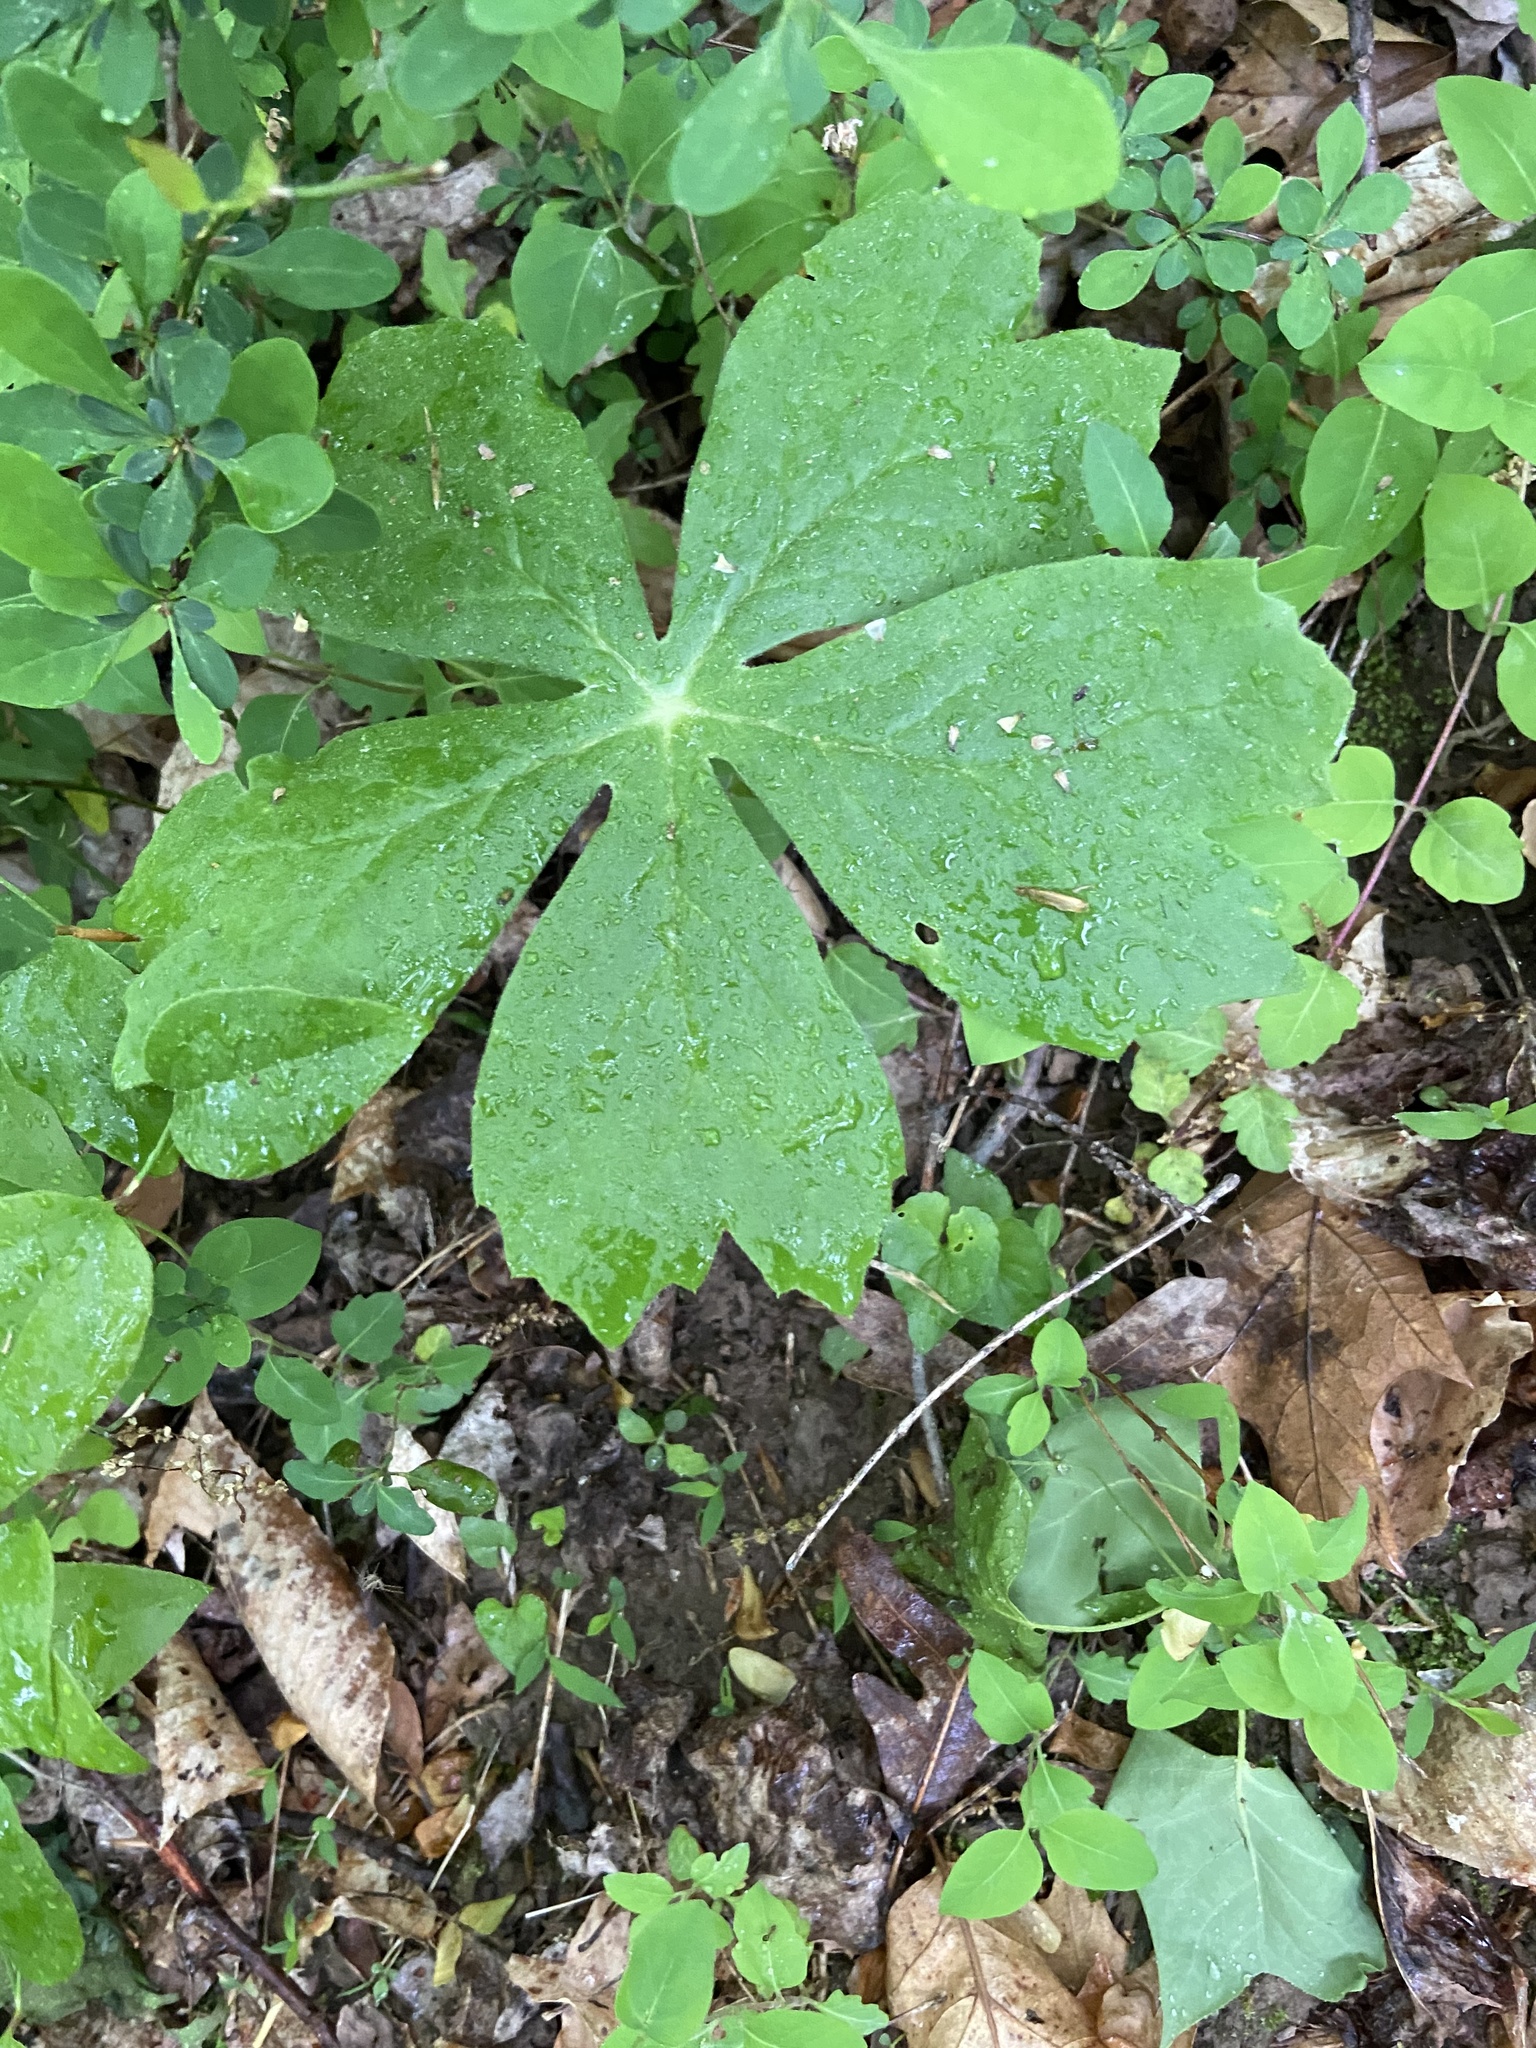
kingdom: Plantae
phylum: Tracheophyta
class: Magnoliopsida
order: Ranunculales
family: Berberidaceae
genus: Podophyllum
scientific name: Podophyllum peltatum
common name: Wild mandrake
